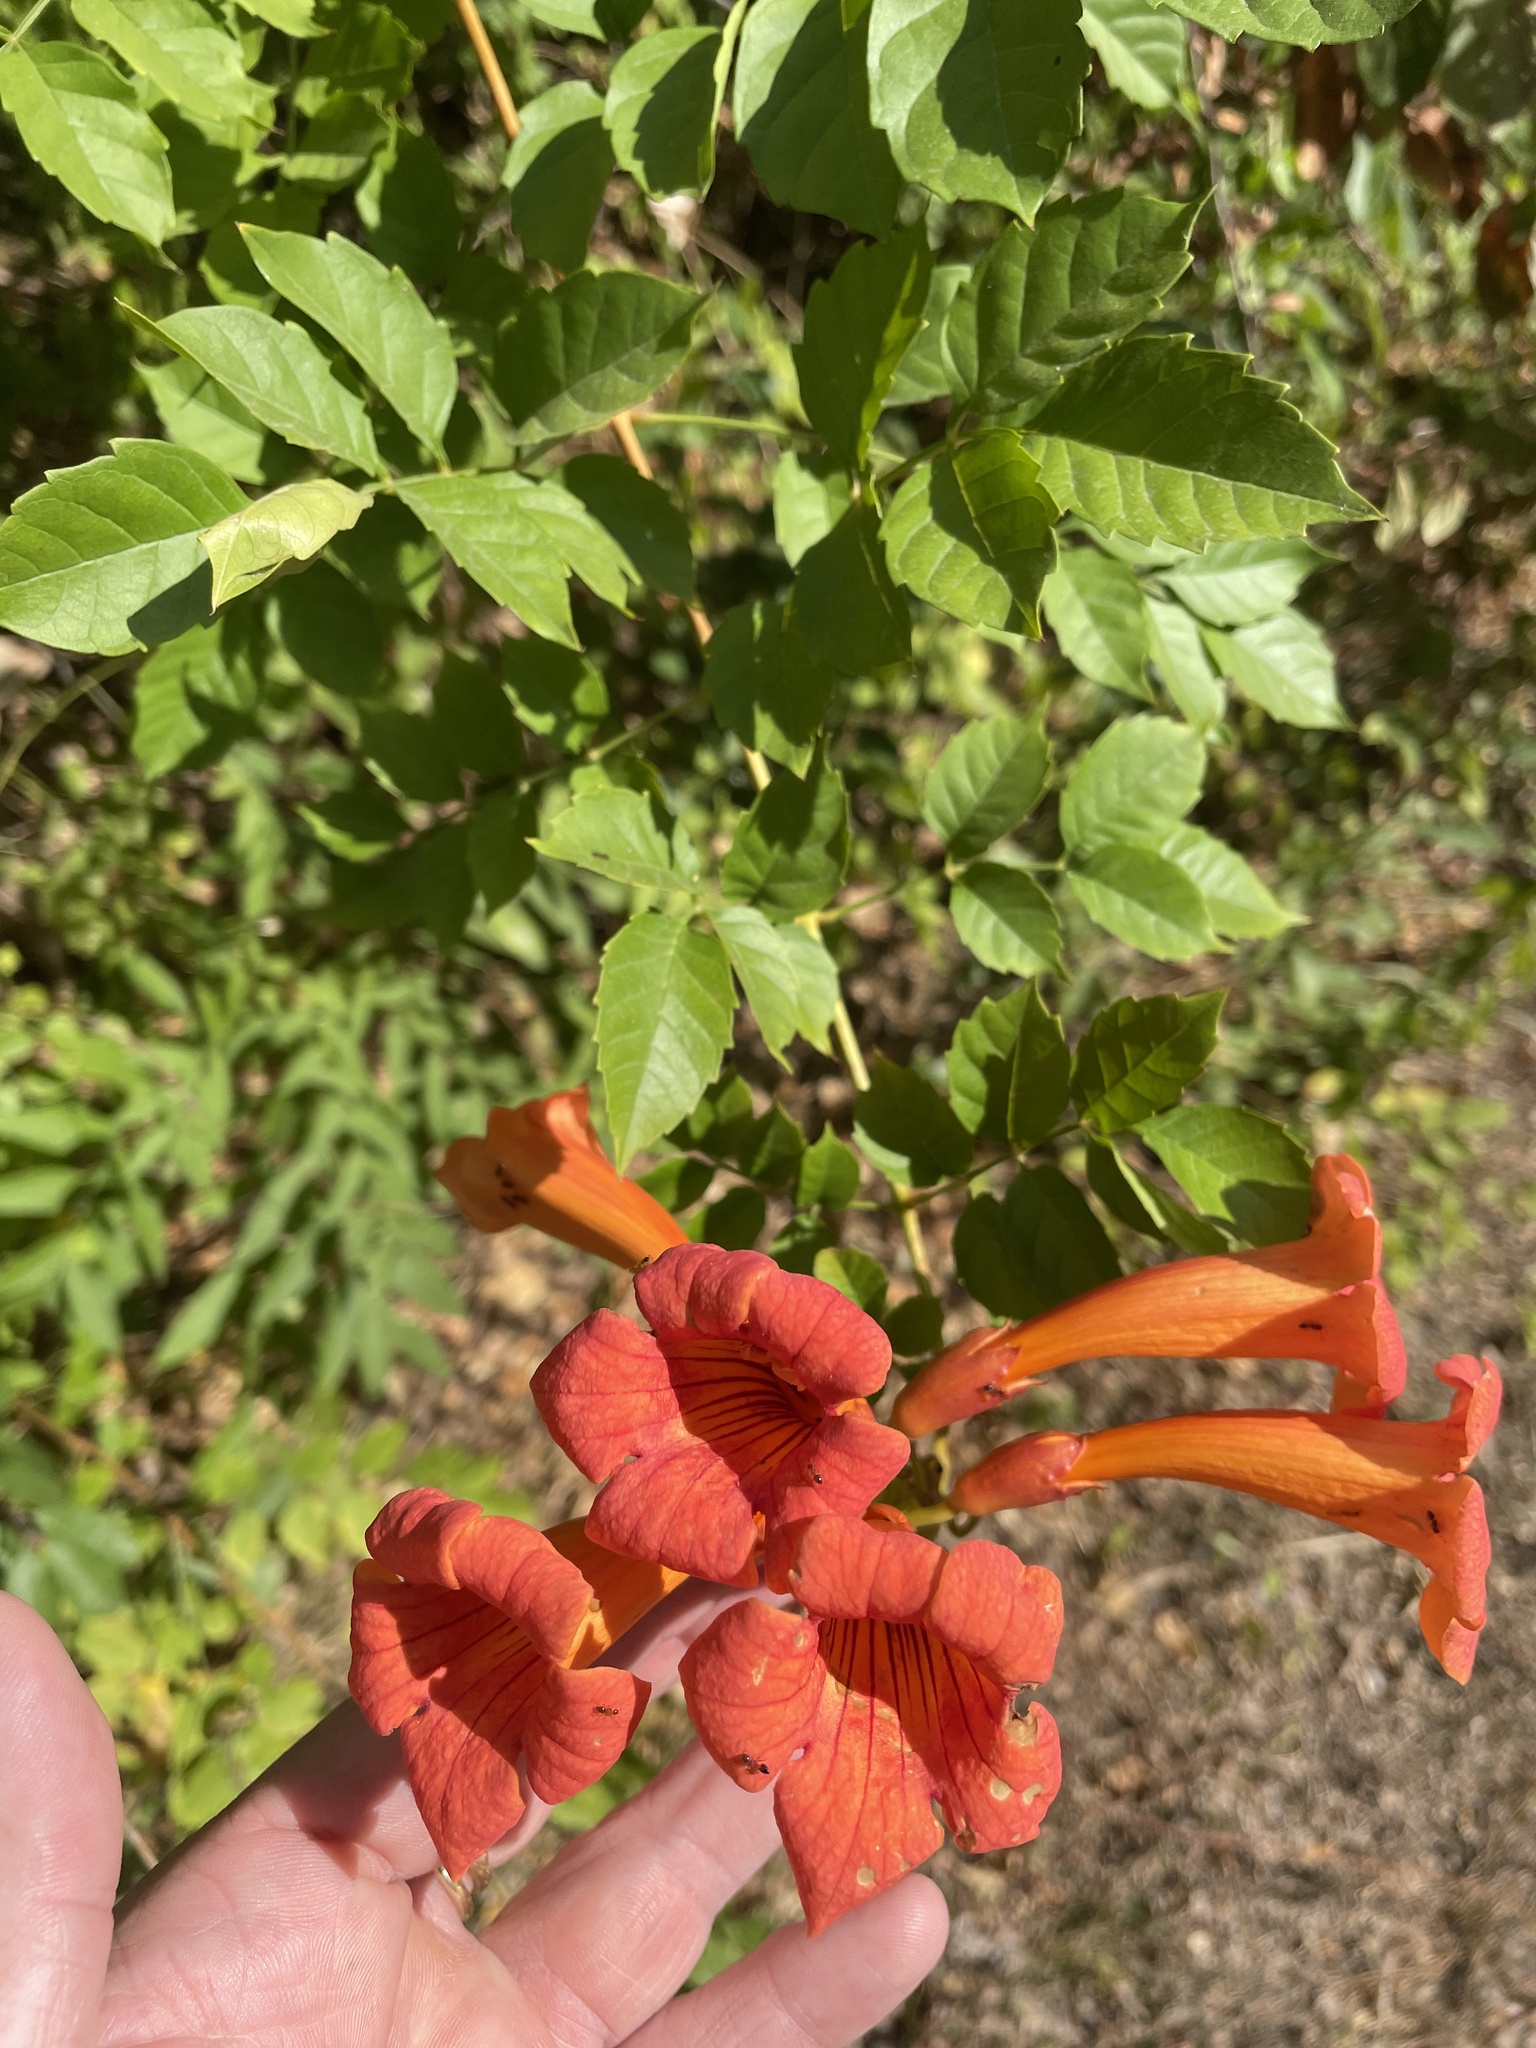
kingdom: Plantae
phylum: Tracheophyta
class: Magnoliopsida
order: Lamiales
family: Bignoniaceae
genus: Campsis
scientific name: Campsis radicans
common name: Trumpet-creeper
